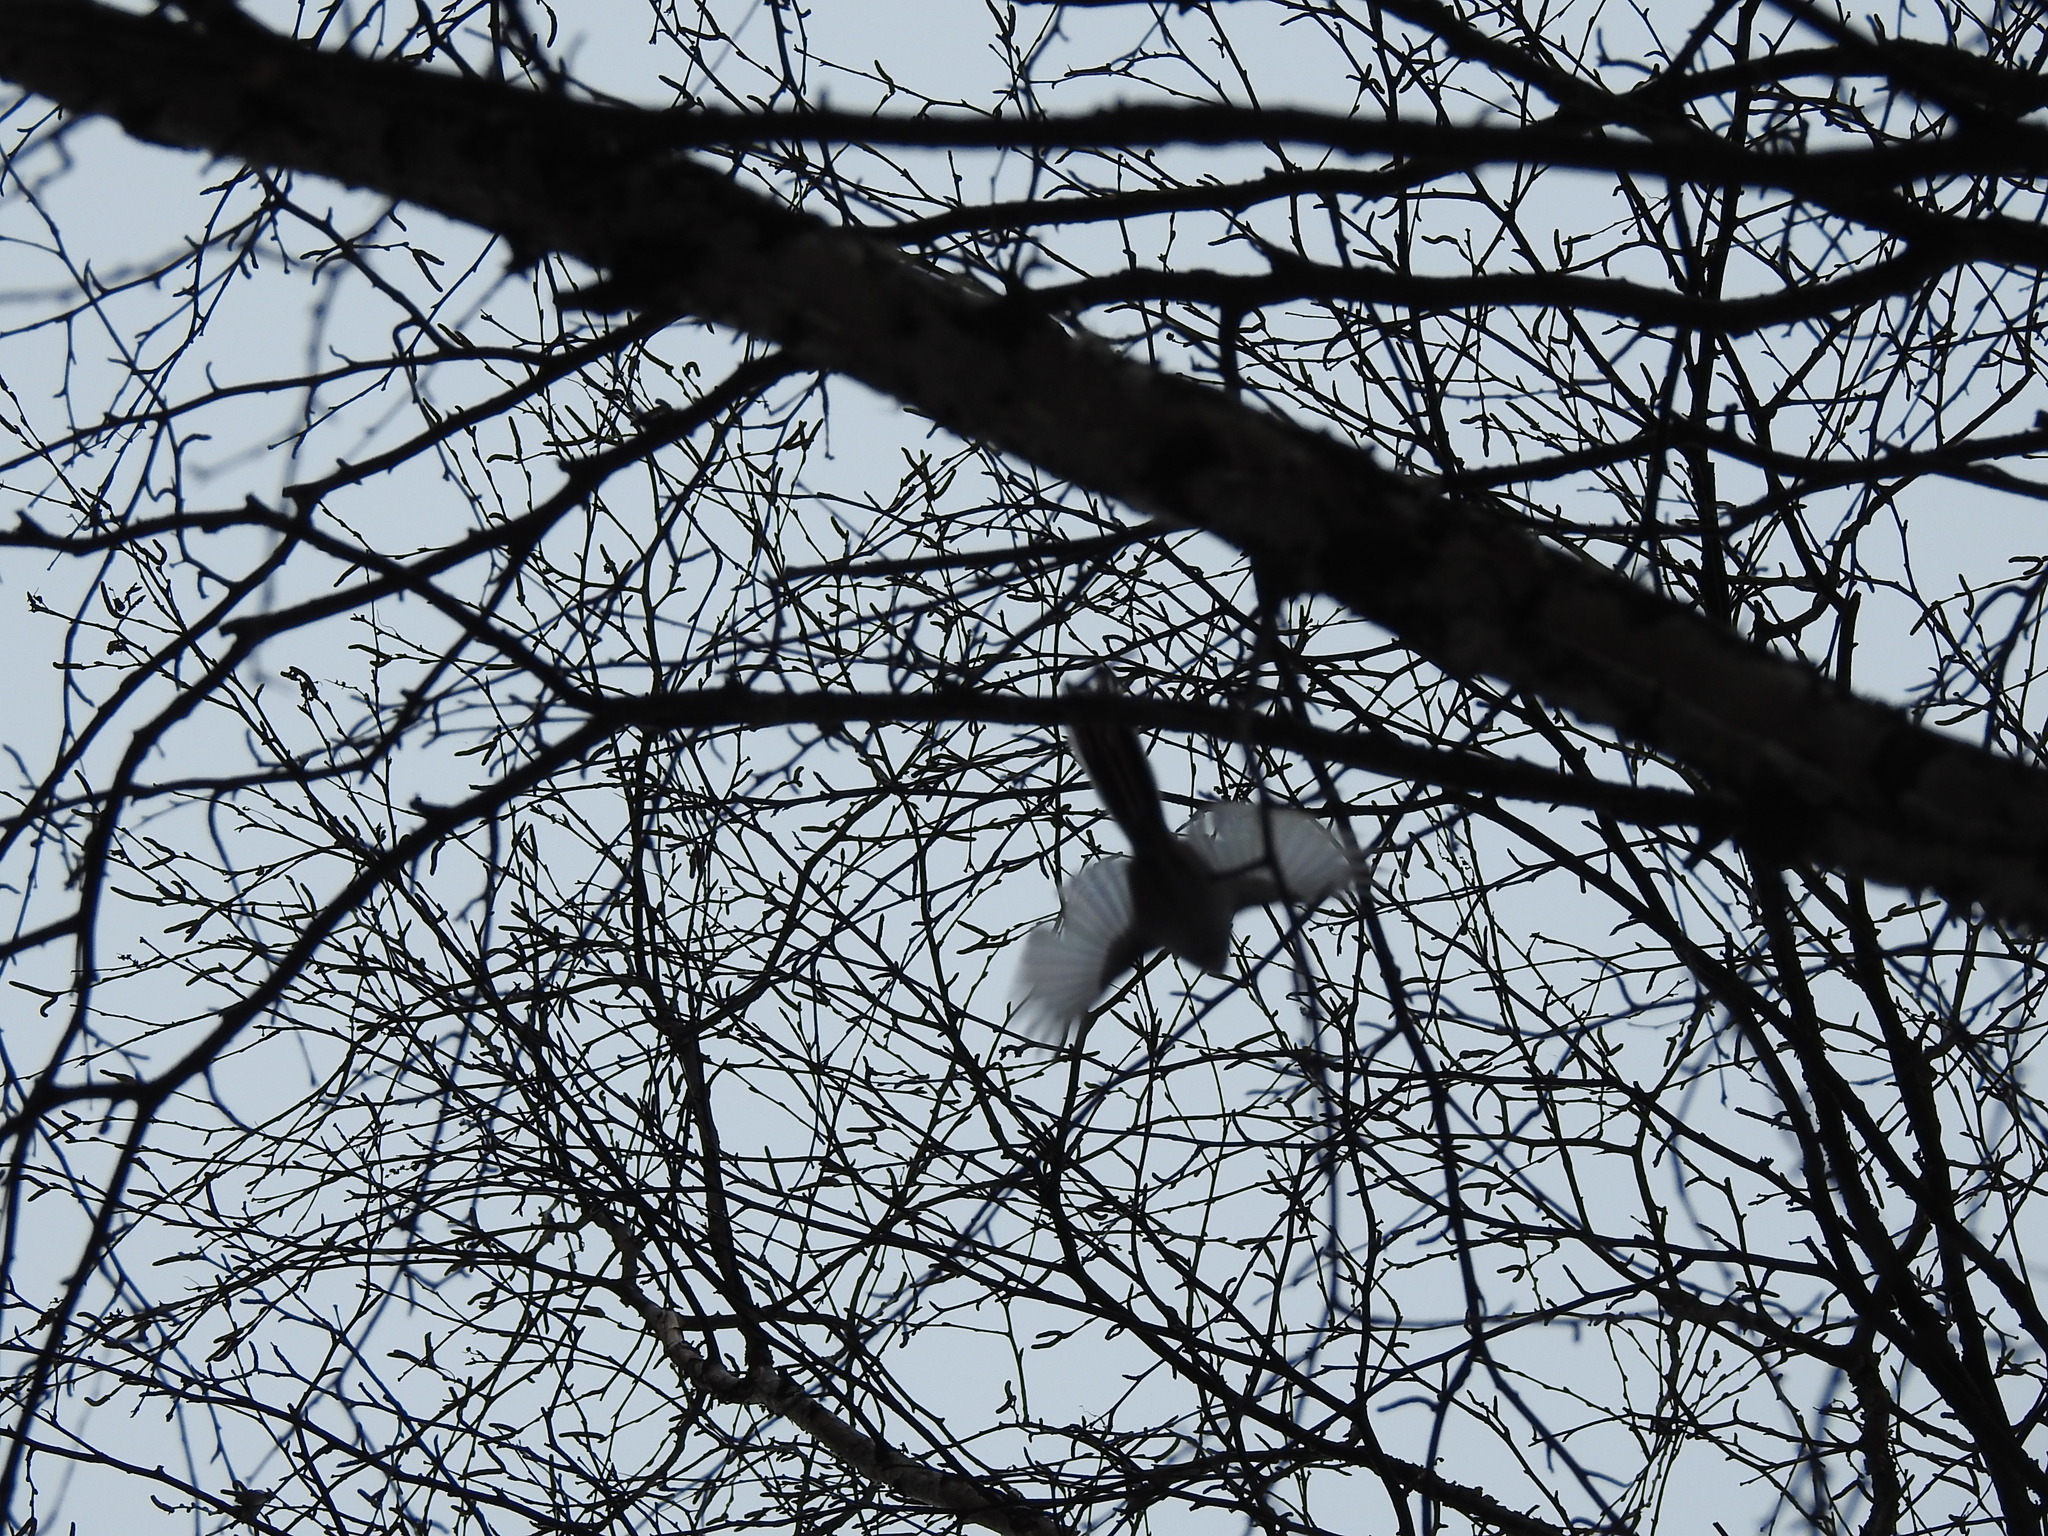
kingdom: Animalia
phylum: Chordata
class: Aves
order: Passeriformes
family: Aegithalidae
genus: Aegithalos
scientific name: Aegithalos caudatus
